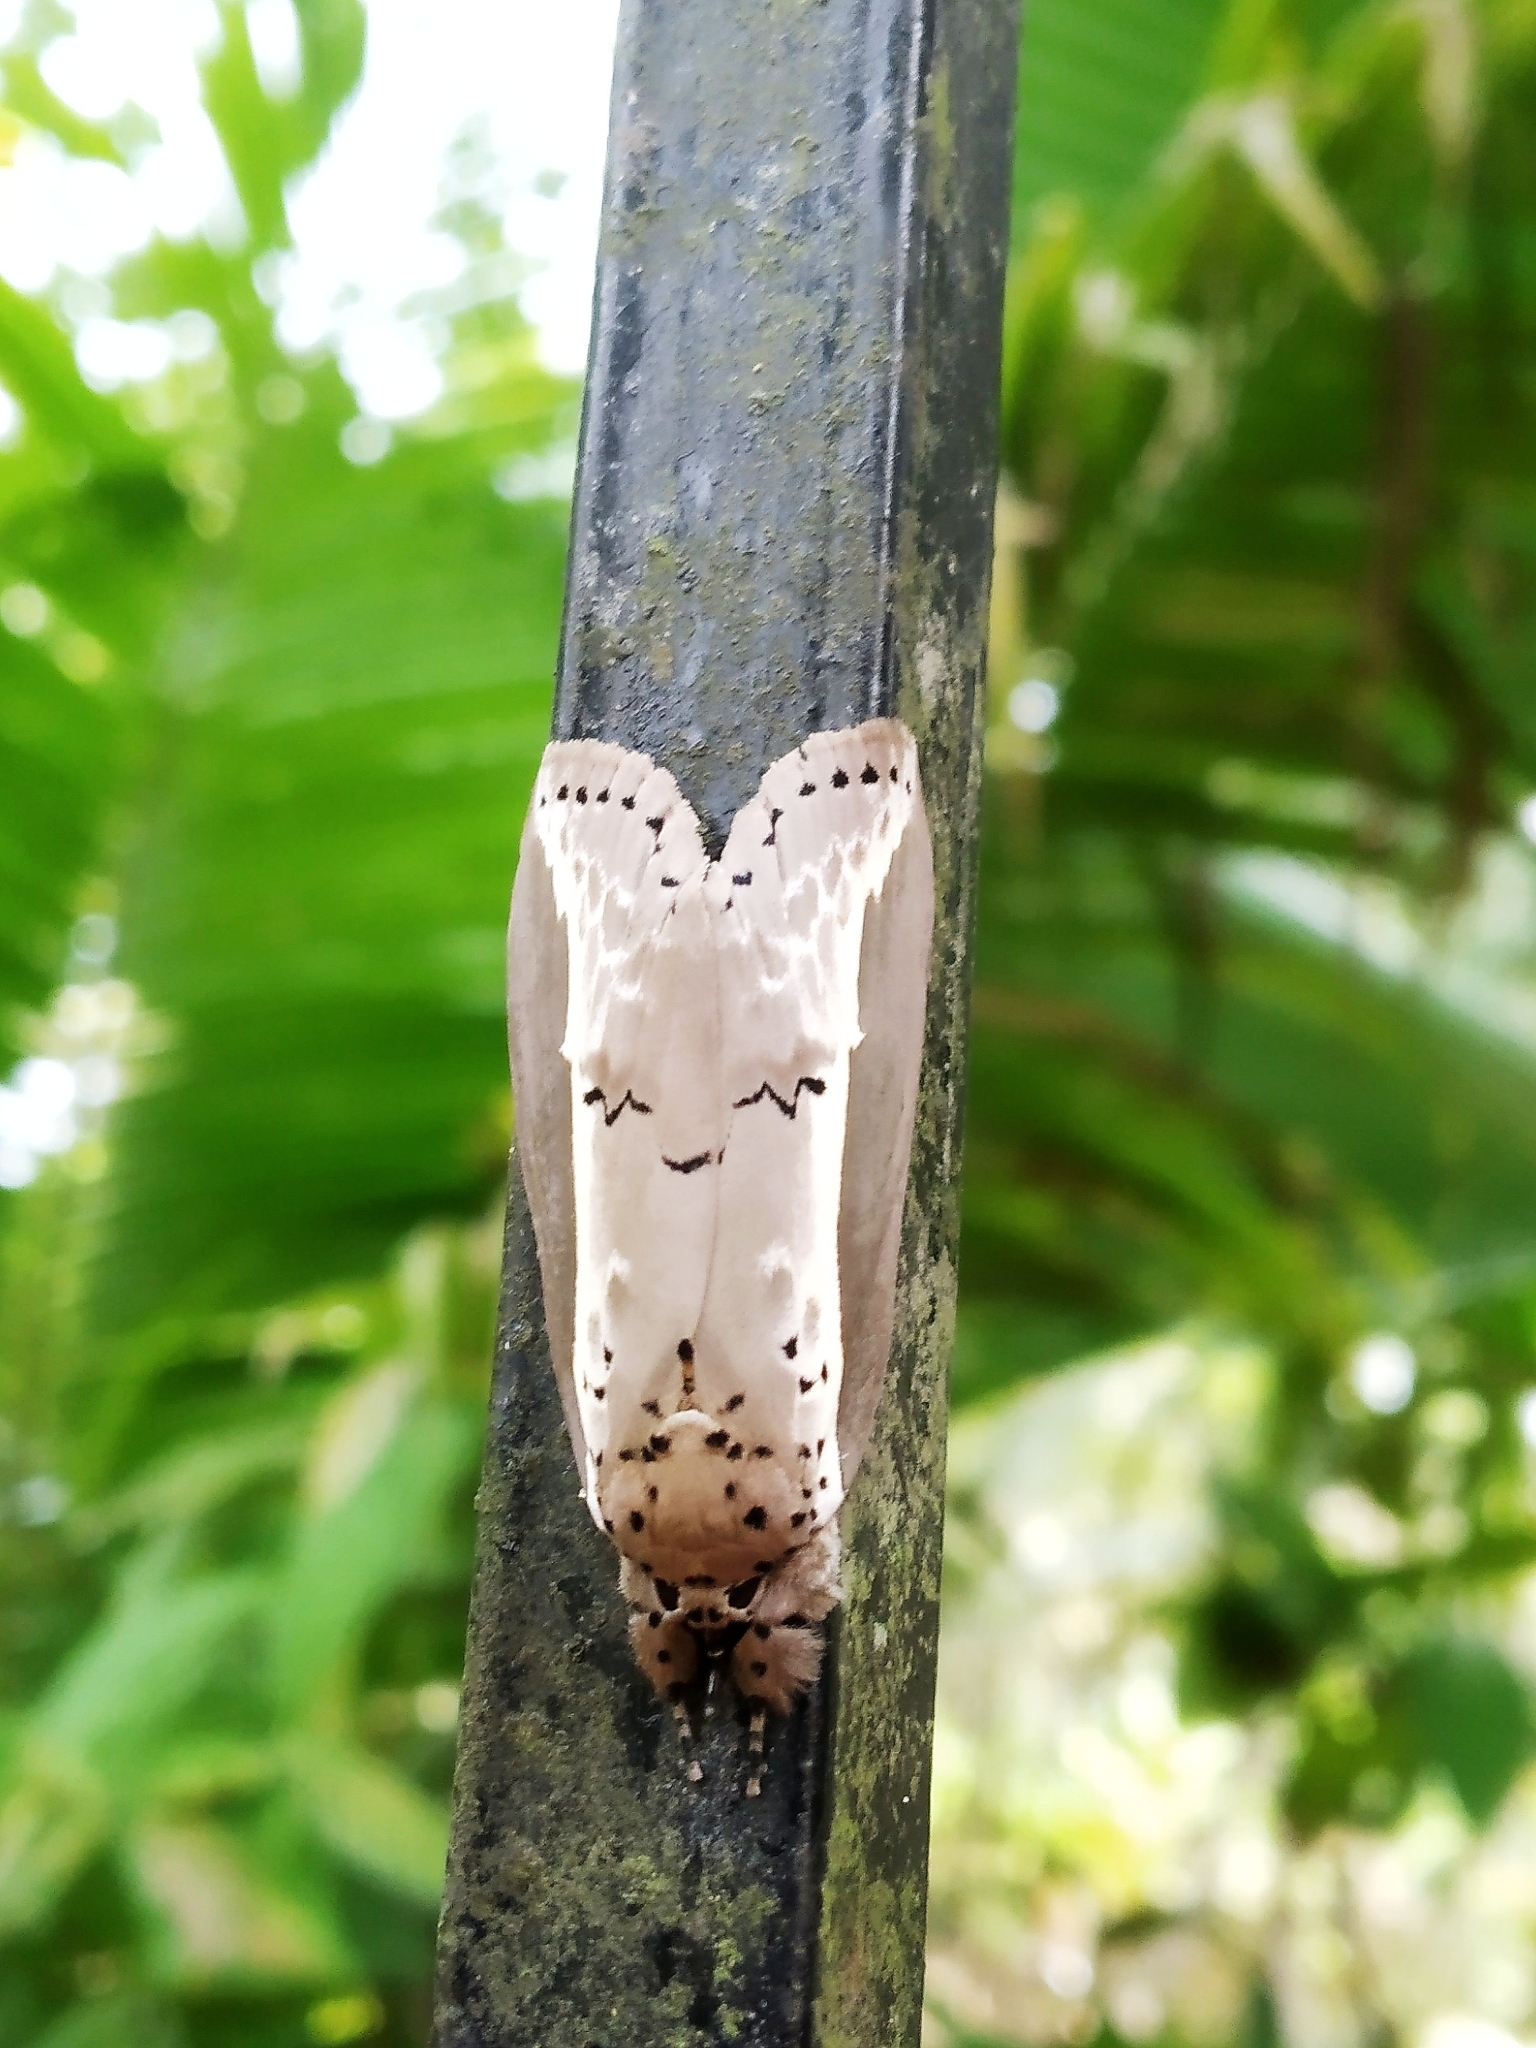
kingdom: Animalia
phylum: Arthropoda
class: Insecta
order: Lepidoptera
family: Nolidae
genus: Eligma
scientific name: Eligma narcissus
